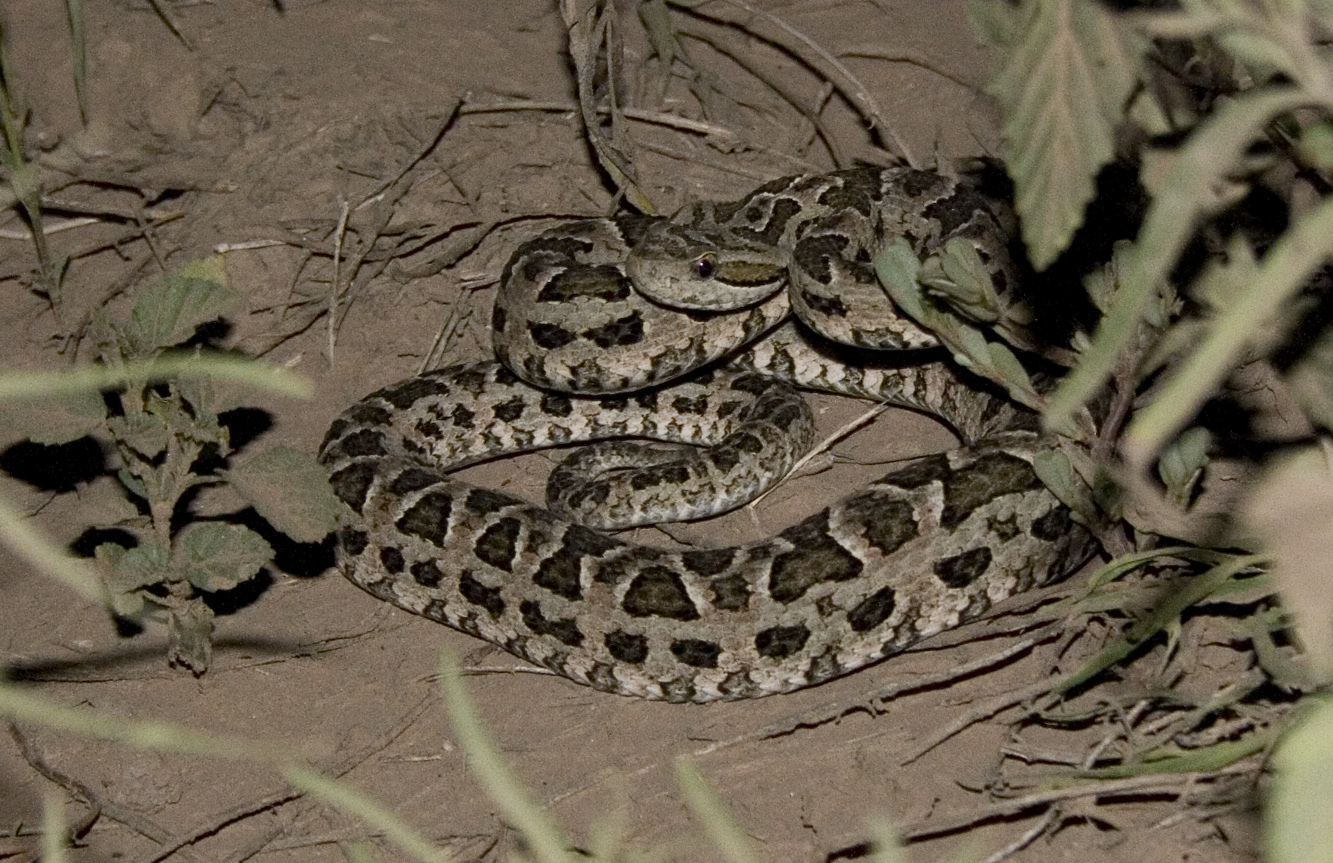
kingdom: Animalia
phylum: Chordata
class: Squamata
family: Viperidae
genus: Bothrops
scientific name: Bothrops diporus
